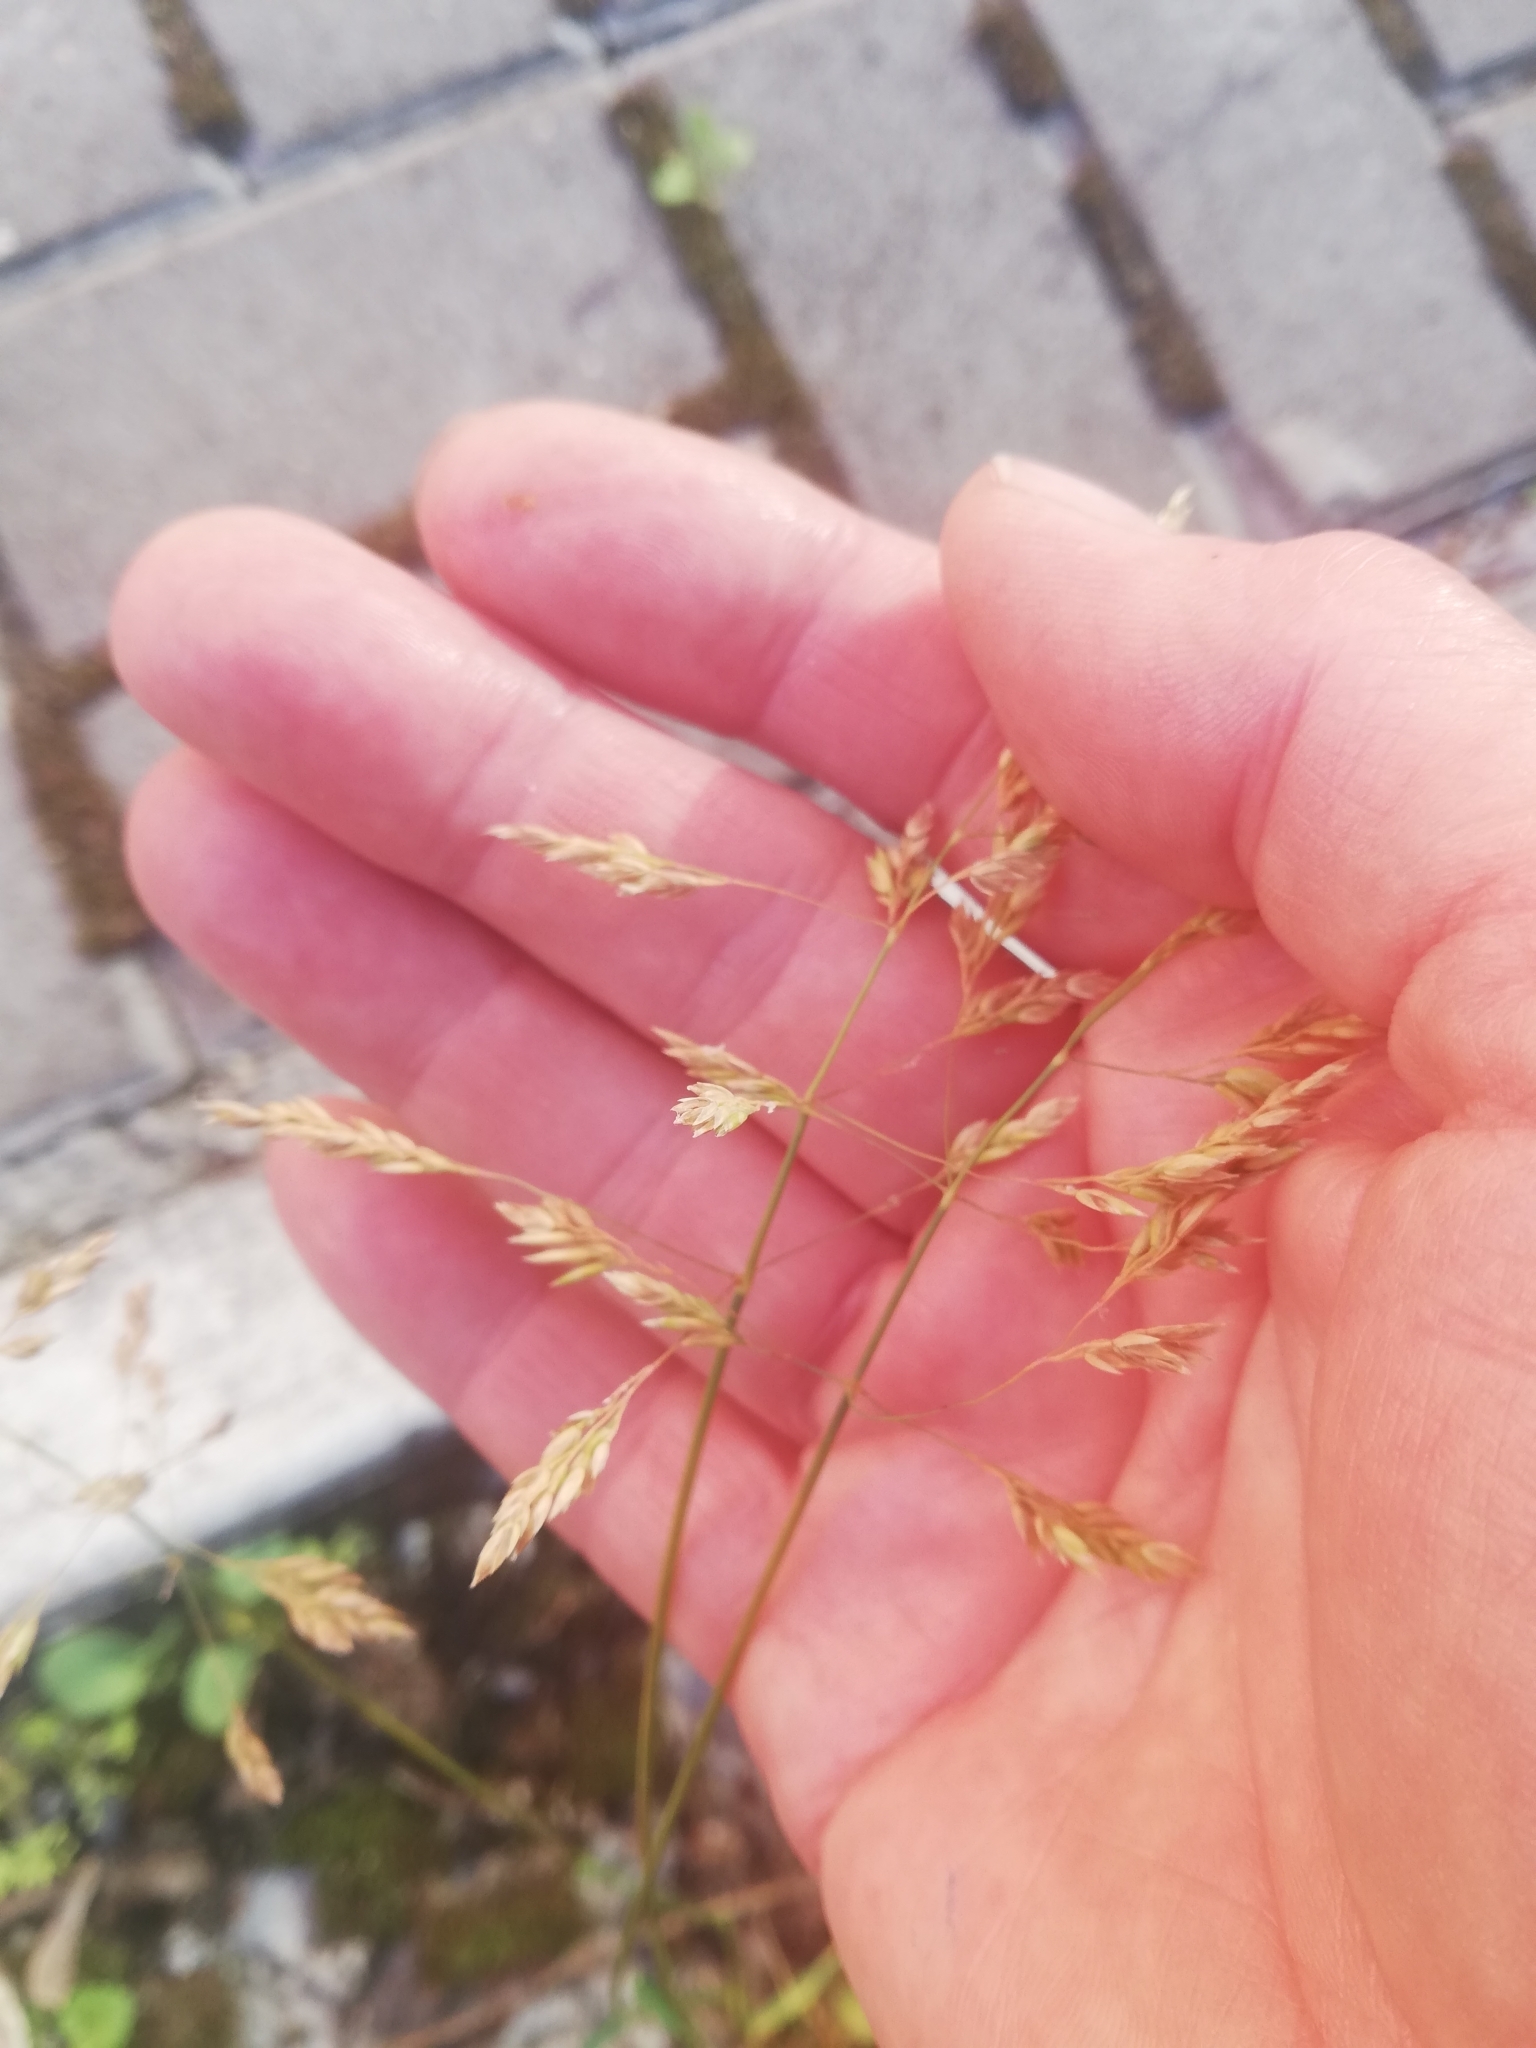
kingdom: Plantae
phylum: Tracheophyta
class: Liliopsida
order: Poales
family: Poaceae
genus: Poa
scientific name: Poa pratensis
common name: Kentucky bluegrass
